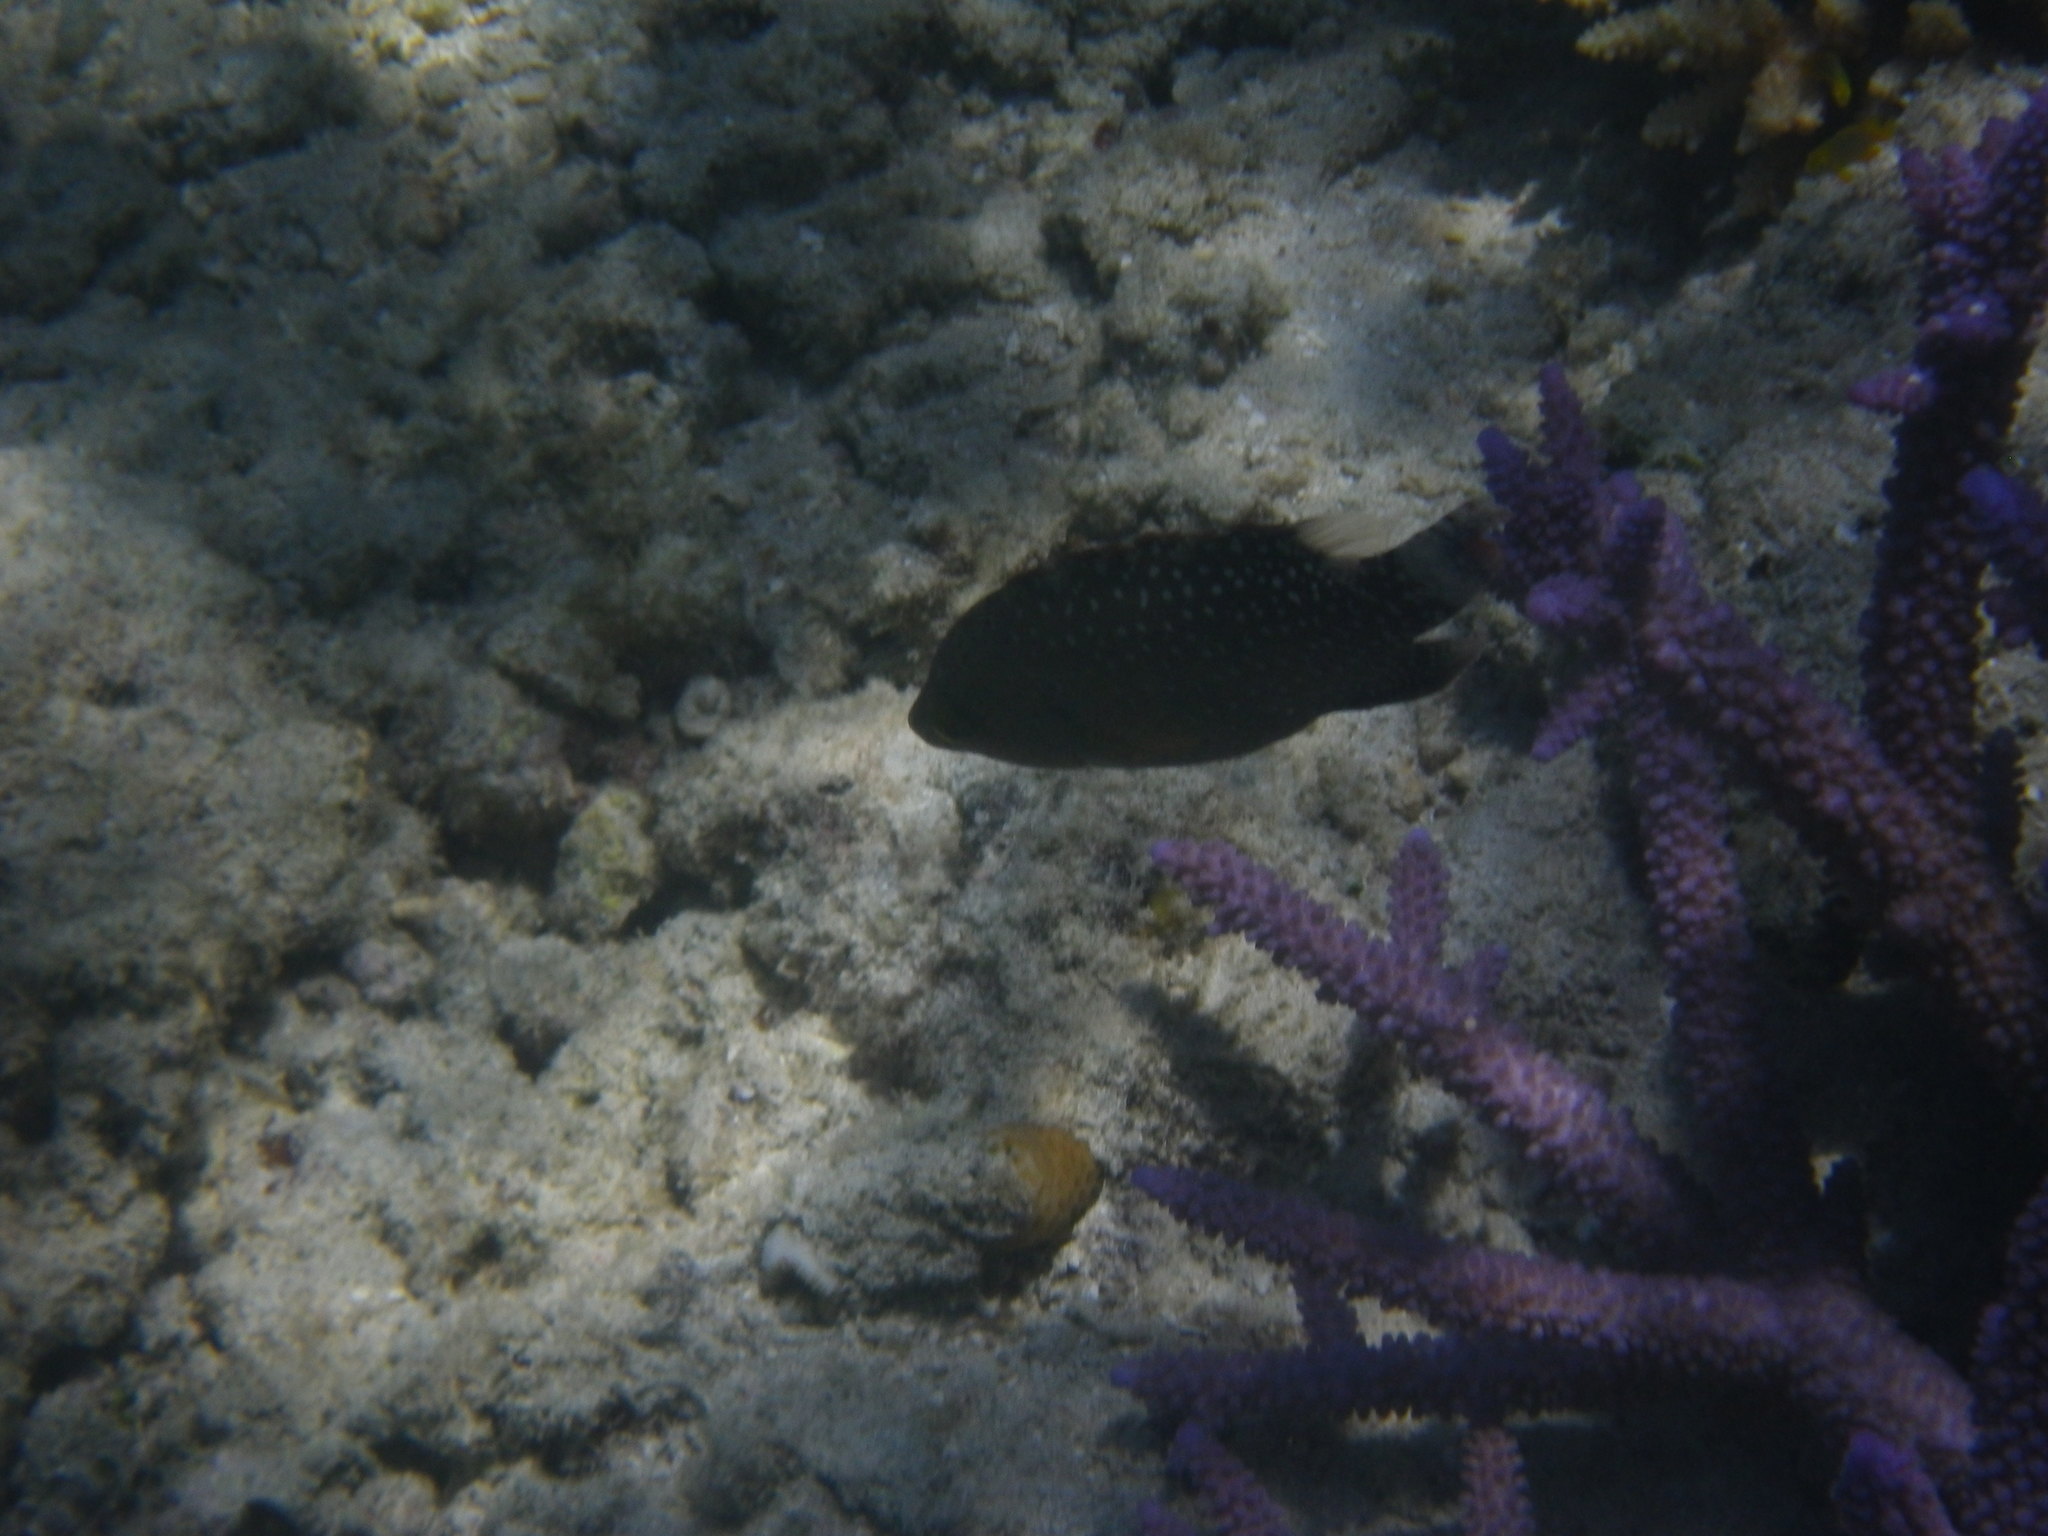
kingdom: Animalia
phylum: Chordata
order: Perciformes
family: Labridae
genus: Cheilinus
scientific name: Cheilinus chlorourus
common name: Floral wrasse
